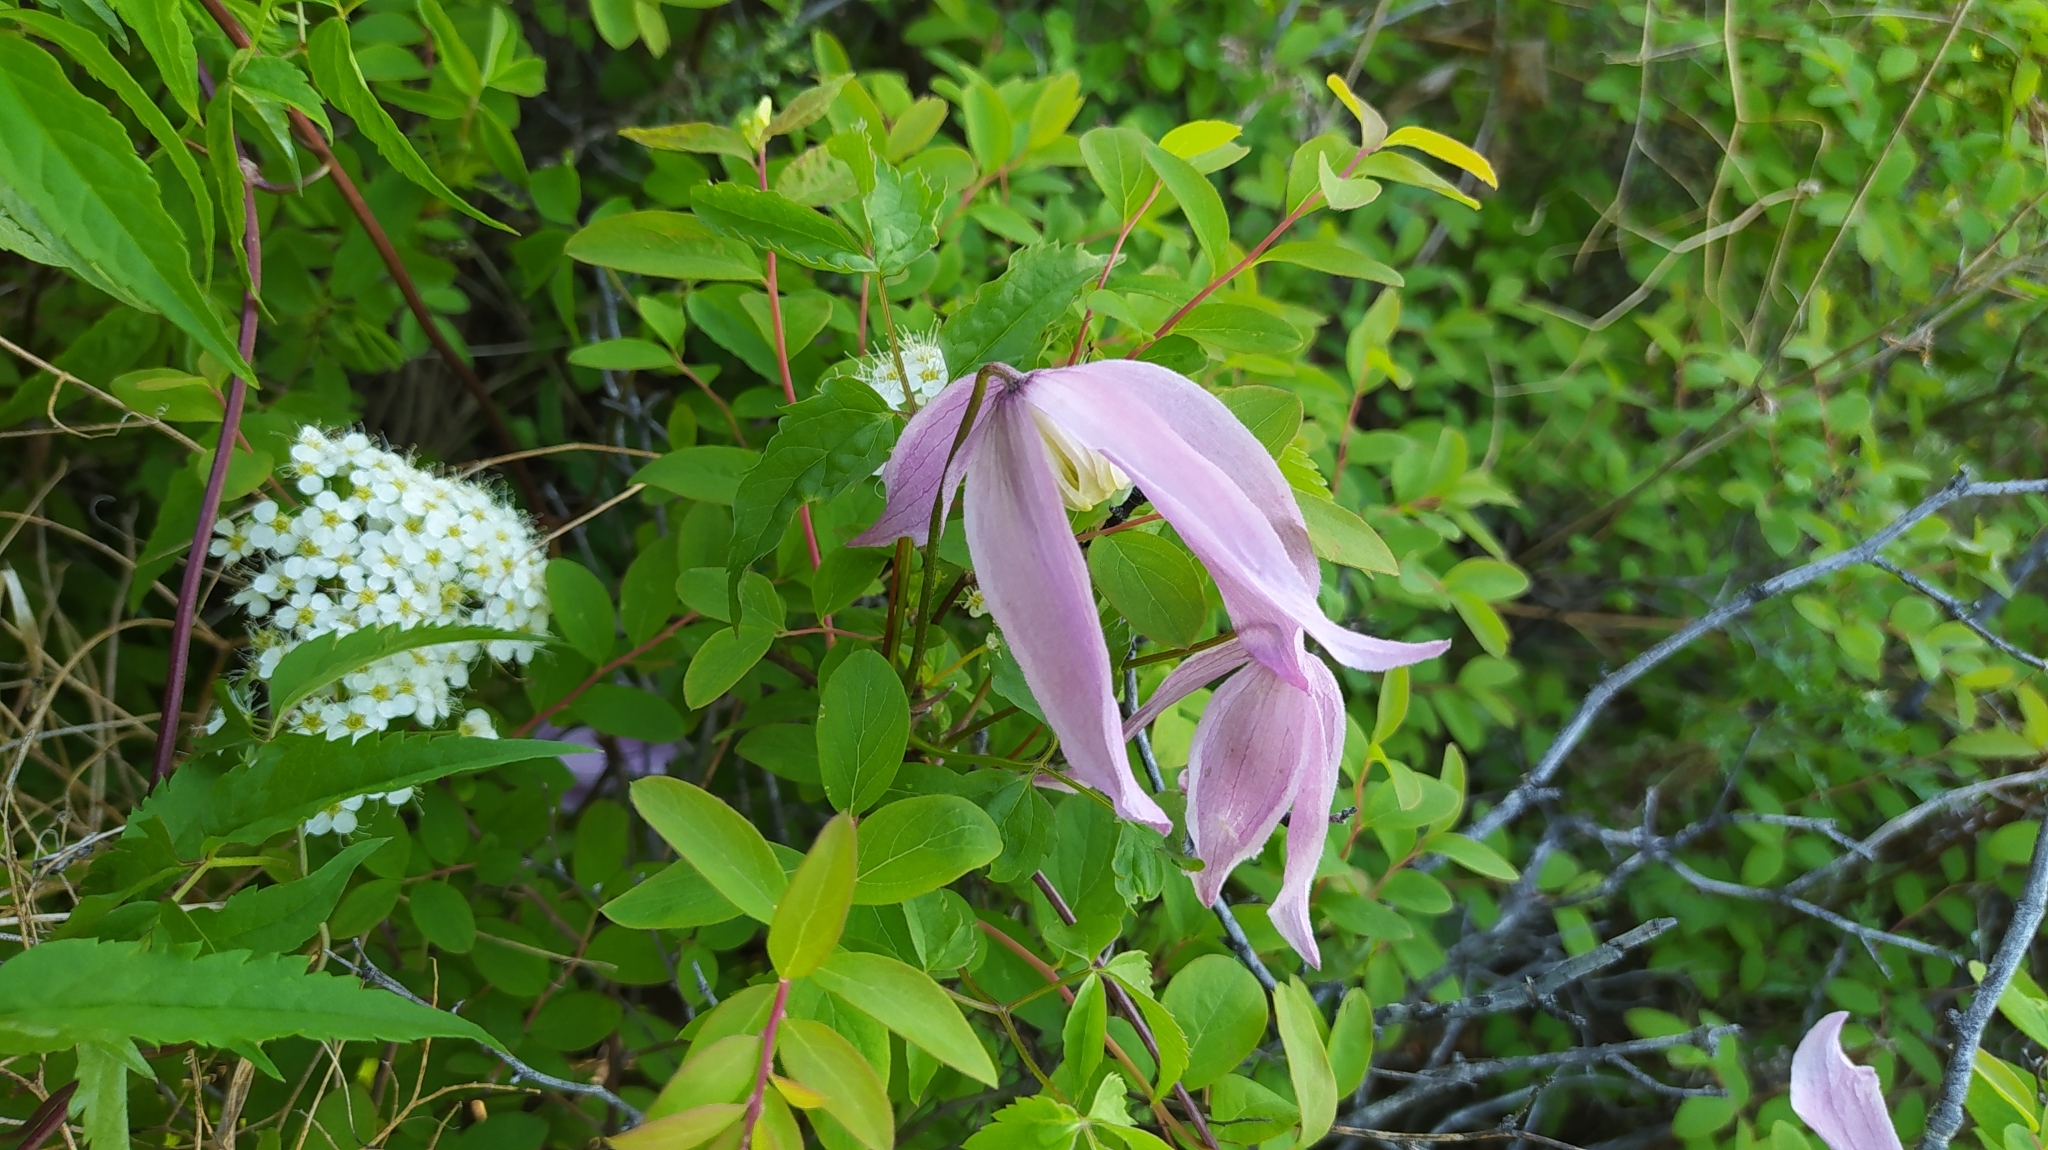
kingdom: Plantae
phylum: Tracheophyta
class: Magnoliopsida
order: Ranunculales
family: Ranunculaceae
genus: Clematis
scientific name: Clematis ochotensis
